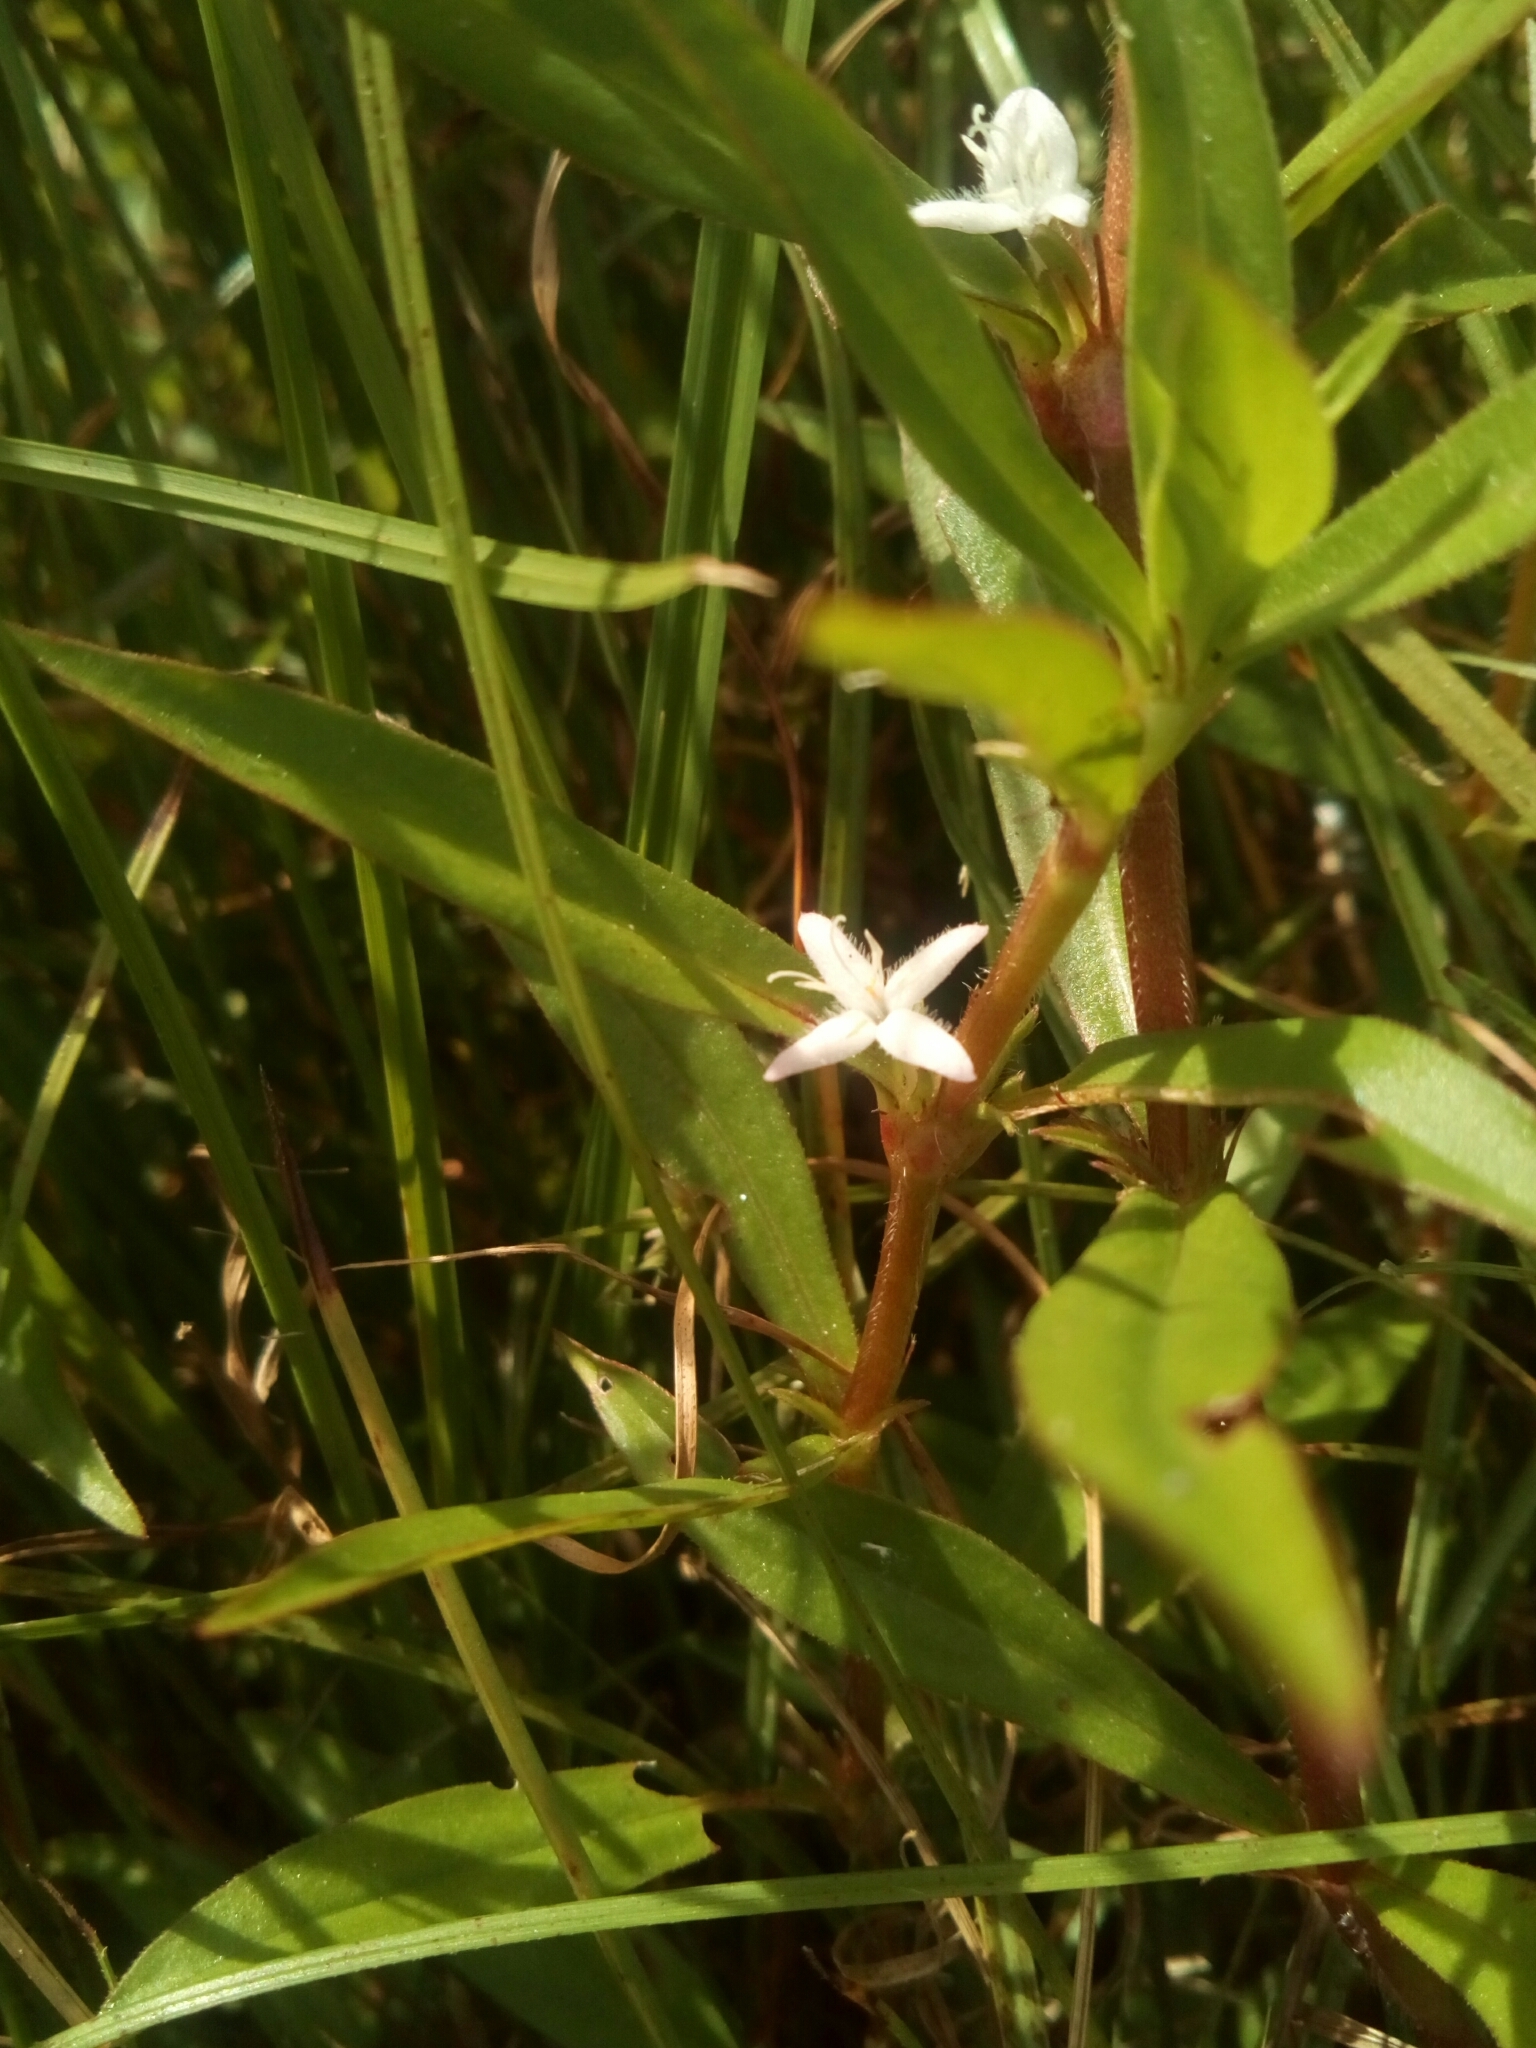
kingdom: Plantae
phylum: Tracheophyta
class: Magnoliopsida
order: Gentianales
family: Rubiaceae
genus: Diodia
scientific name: Diodia virginiana
